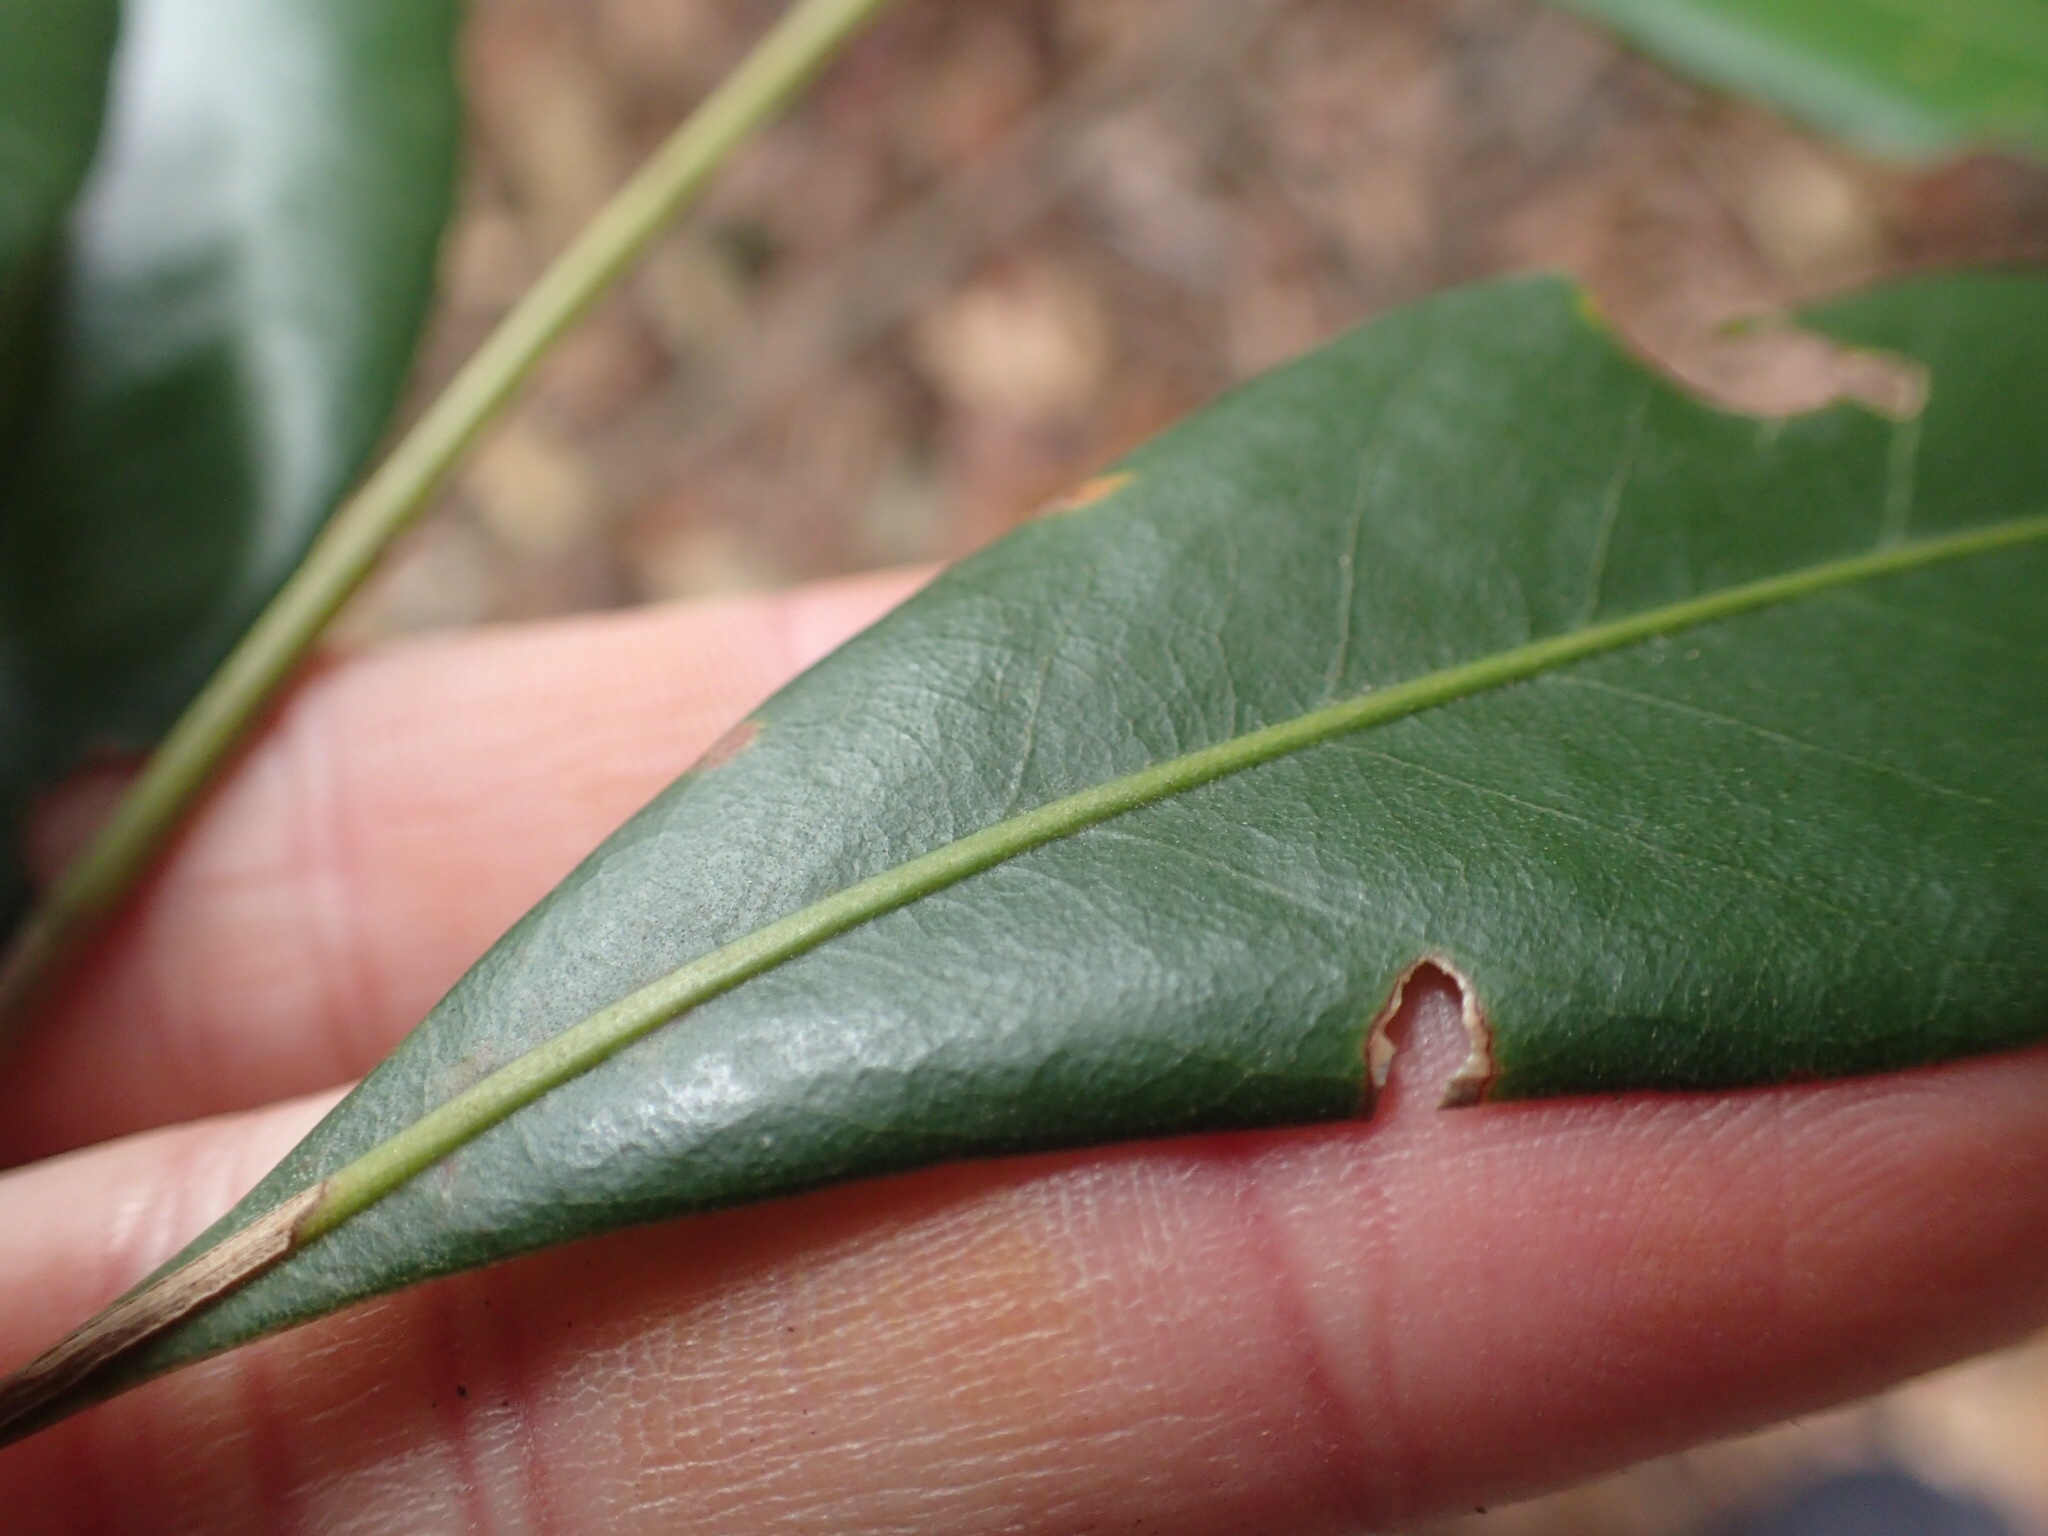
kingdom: Plantae
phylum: Tracheophyta
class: Magnoliopsida
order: Fagales
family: Fagaceae
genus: Lithocarpus
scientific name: Lithocarpus nantoensis
